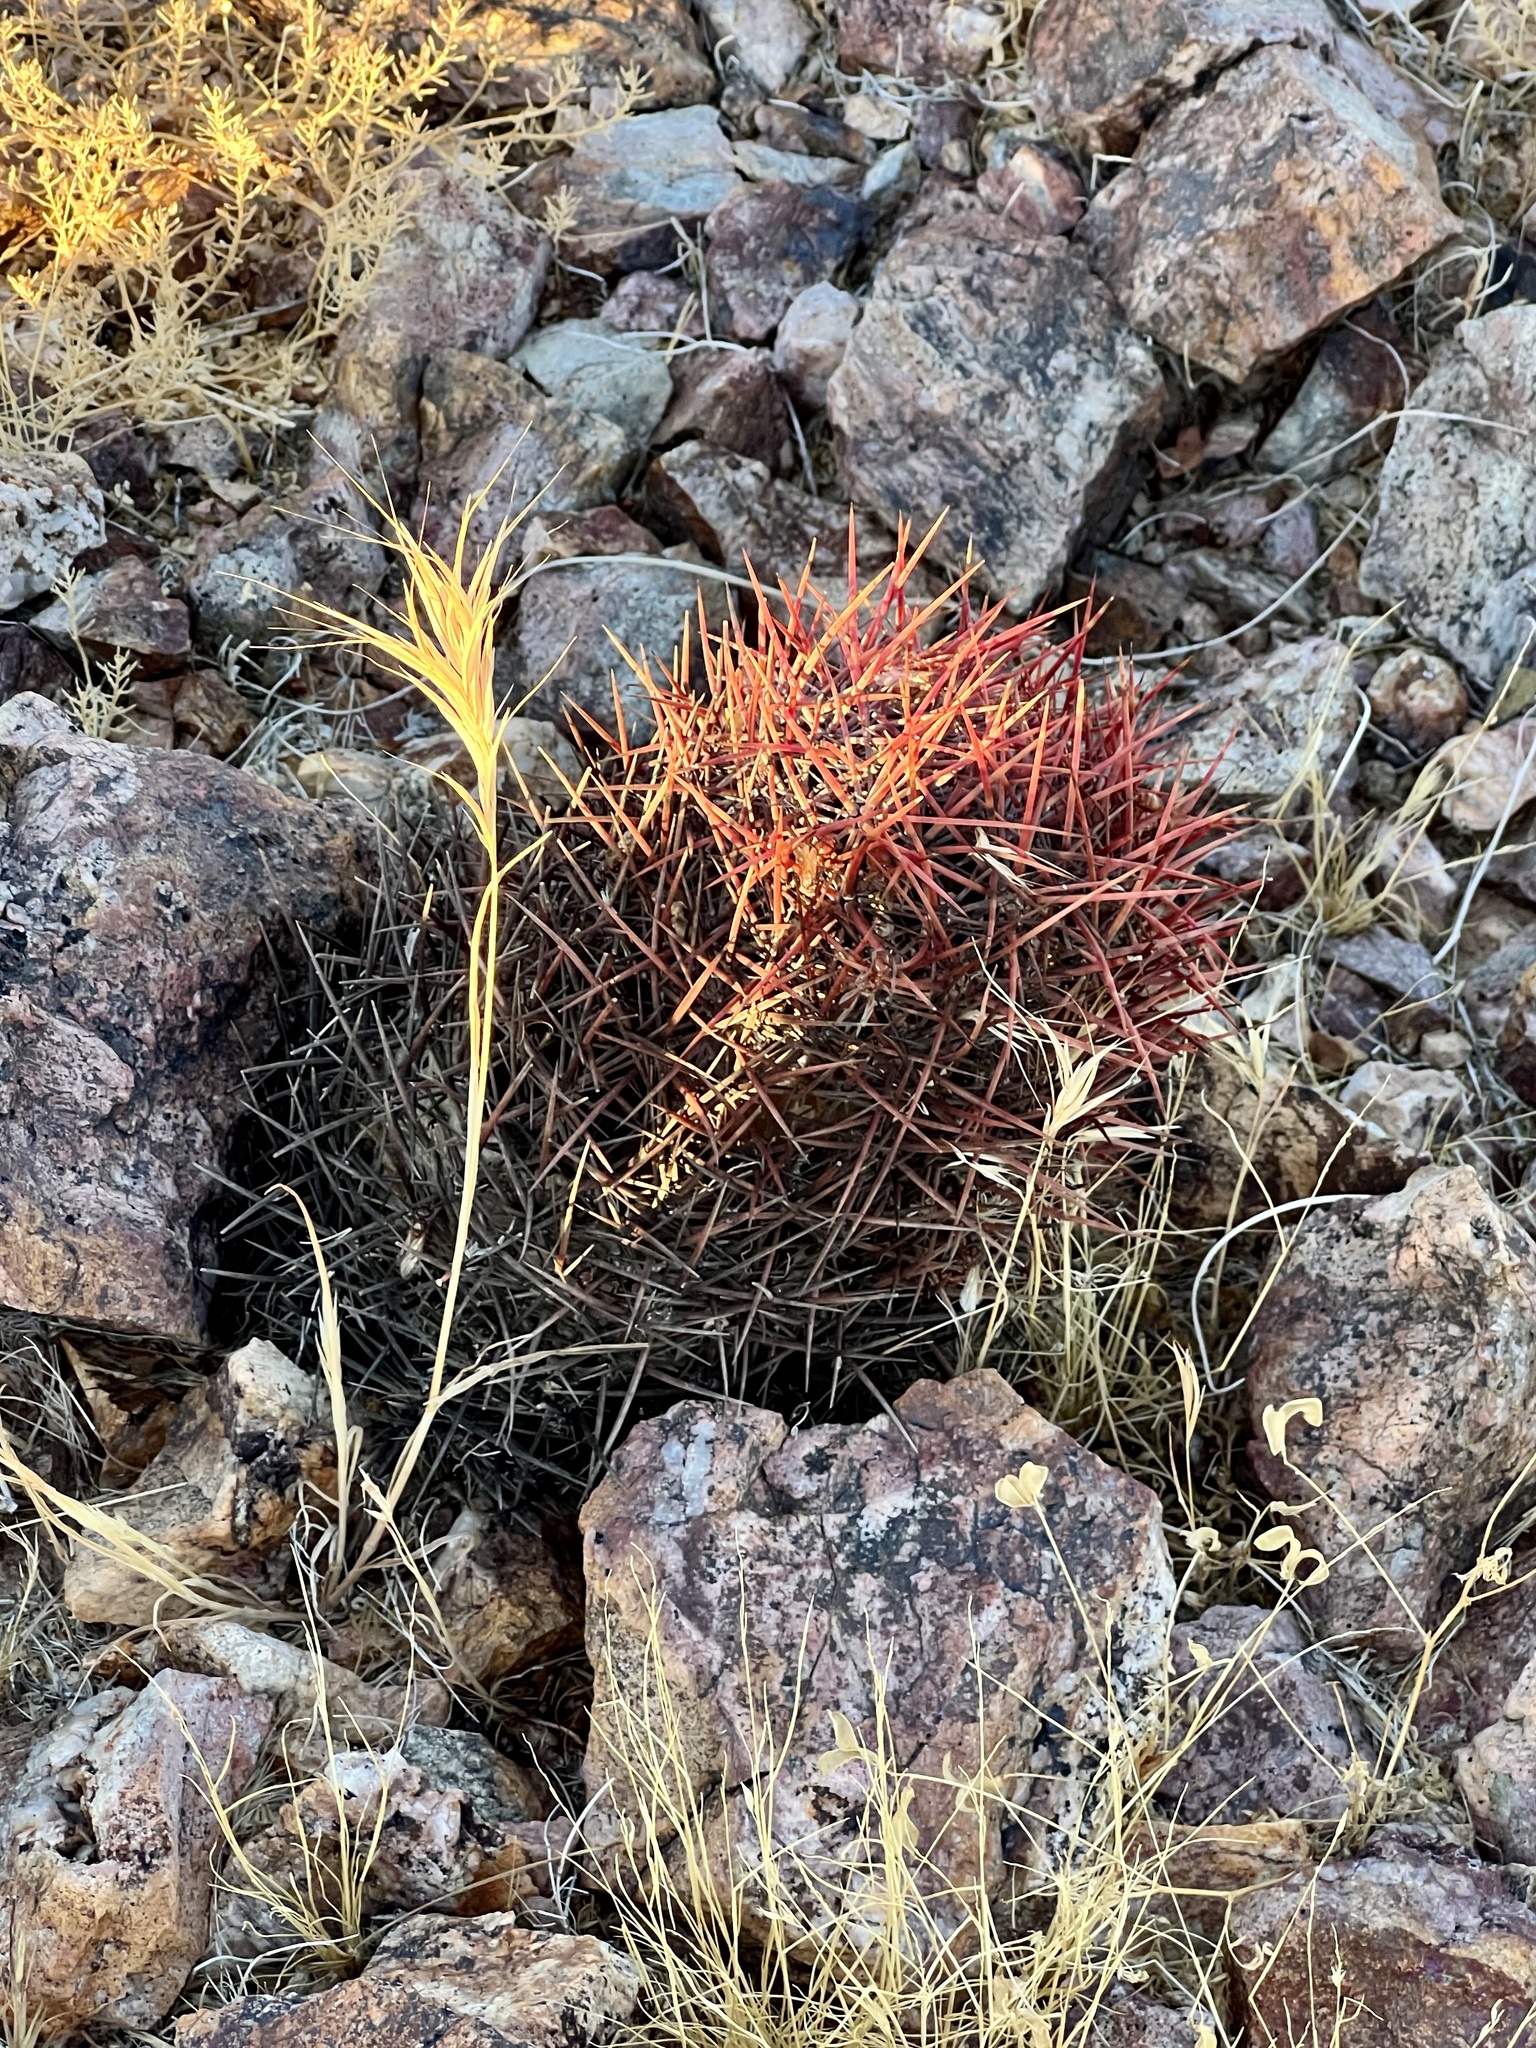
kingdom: Plantae
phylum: Tracheophyta
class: Magnoliopsida
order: Caryophyllales
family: Cactaceae
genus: Sclerocactus
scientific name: Sclerocactus johnsonii
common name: Eight-spine fishhook cactus
